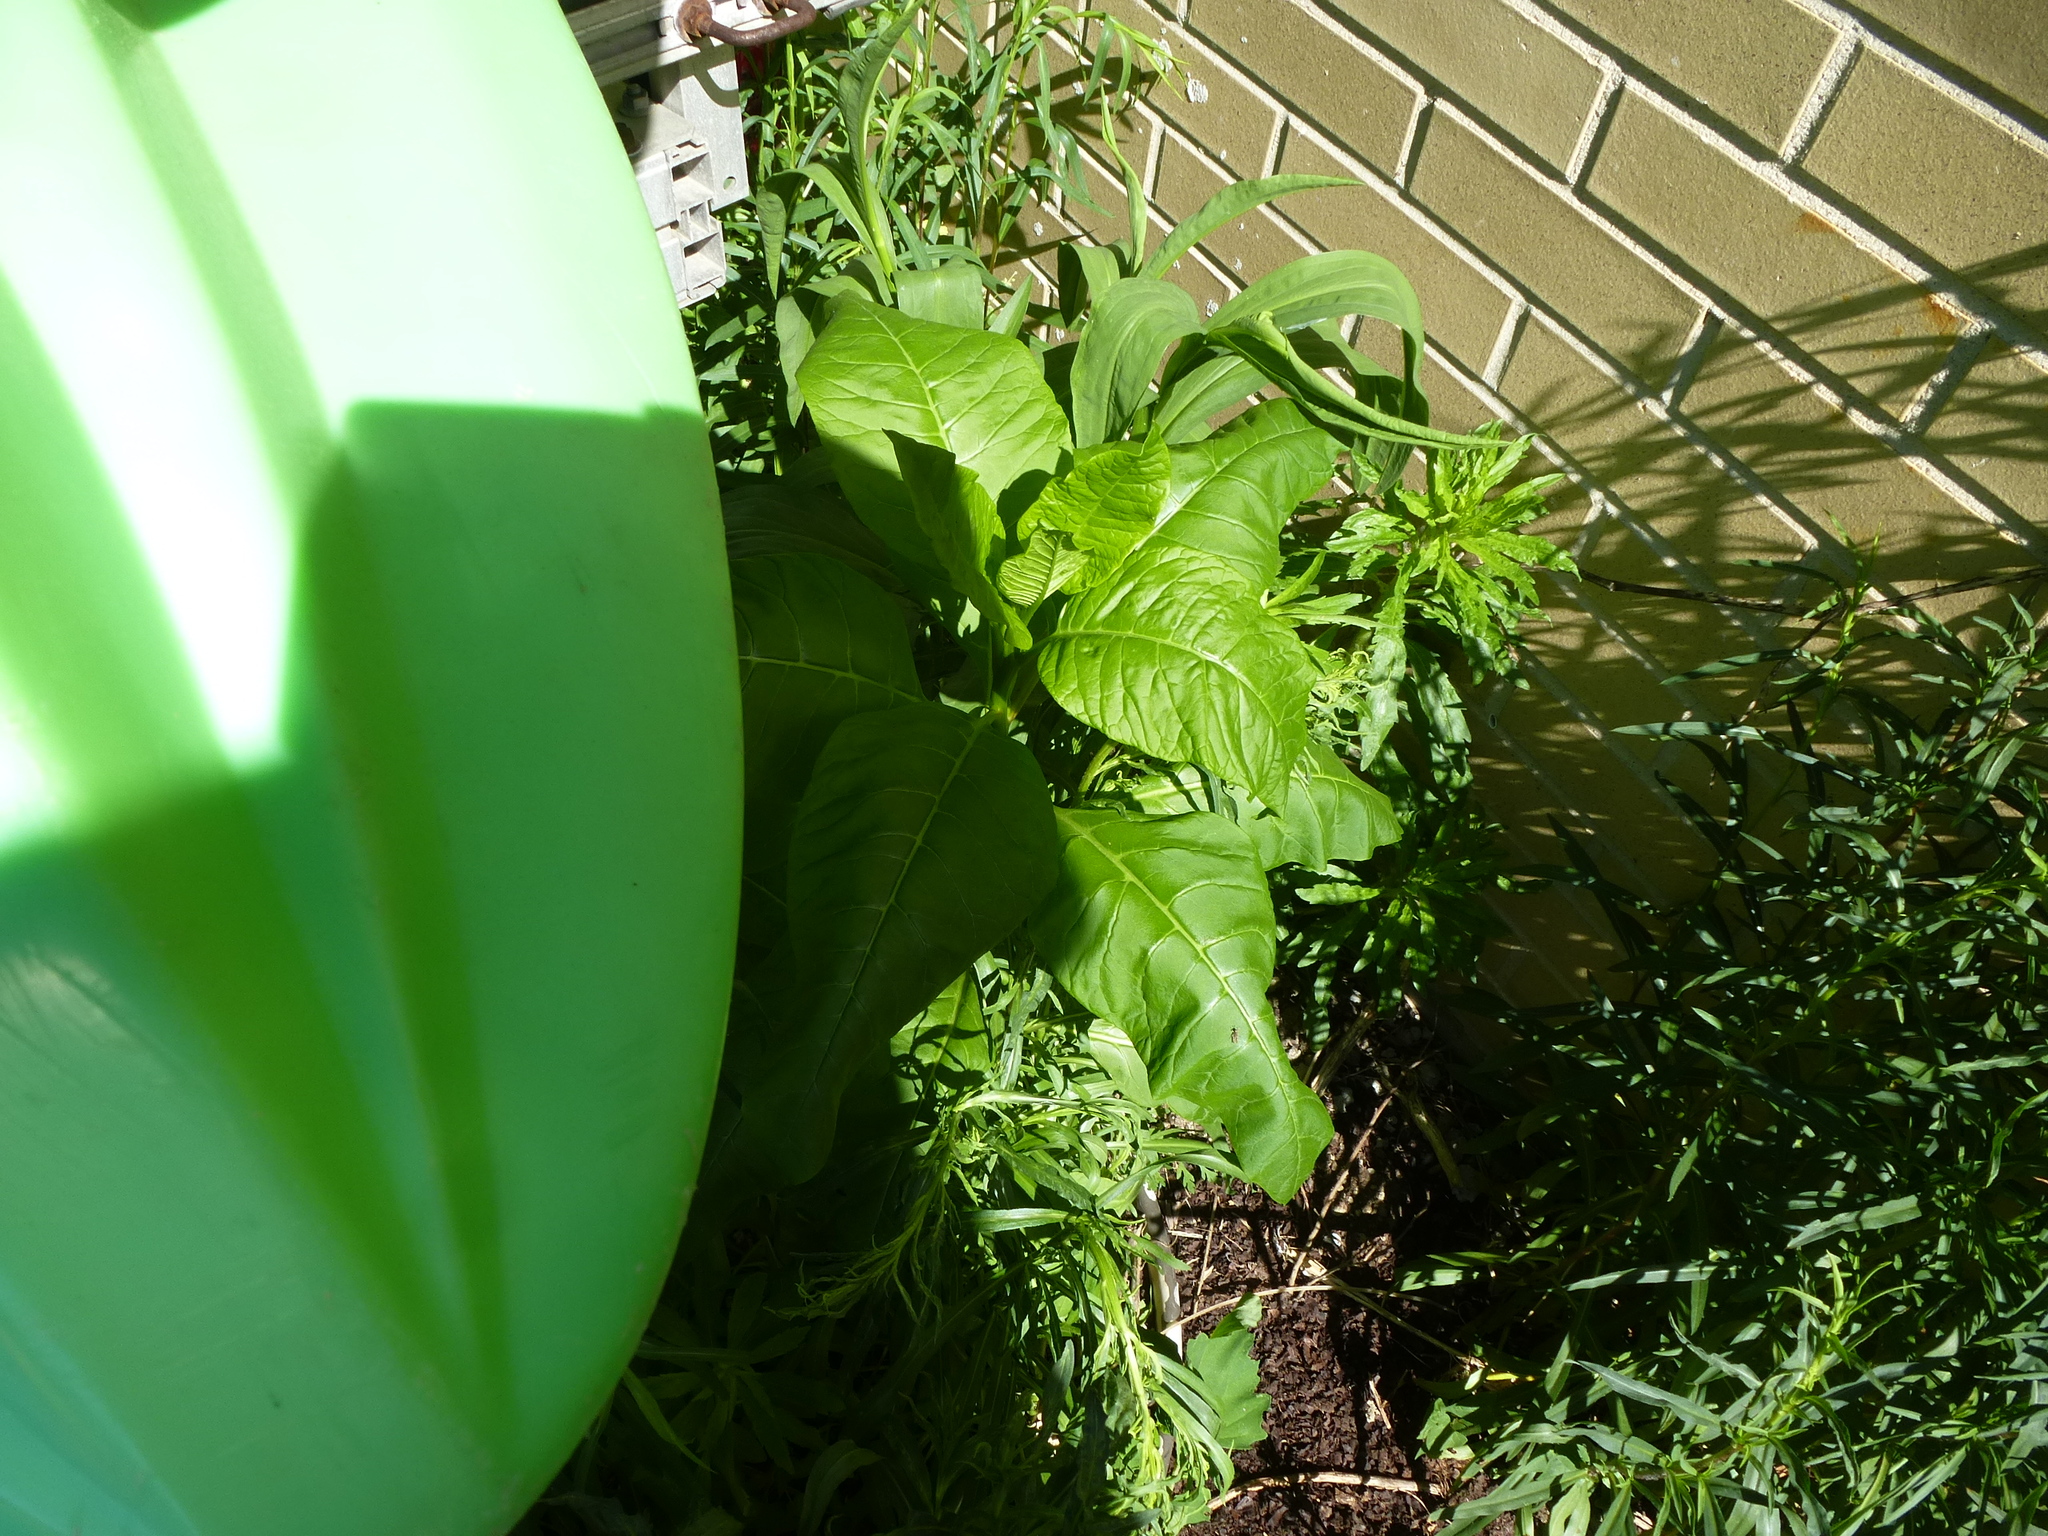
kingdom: Plantae
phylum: Tracheophyta
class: Magnoliopsida
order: Caryophyllales
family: Phytolaccaceae
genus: Phytolacca
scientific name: Phytolacca americana
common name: American pokeweed
